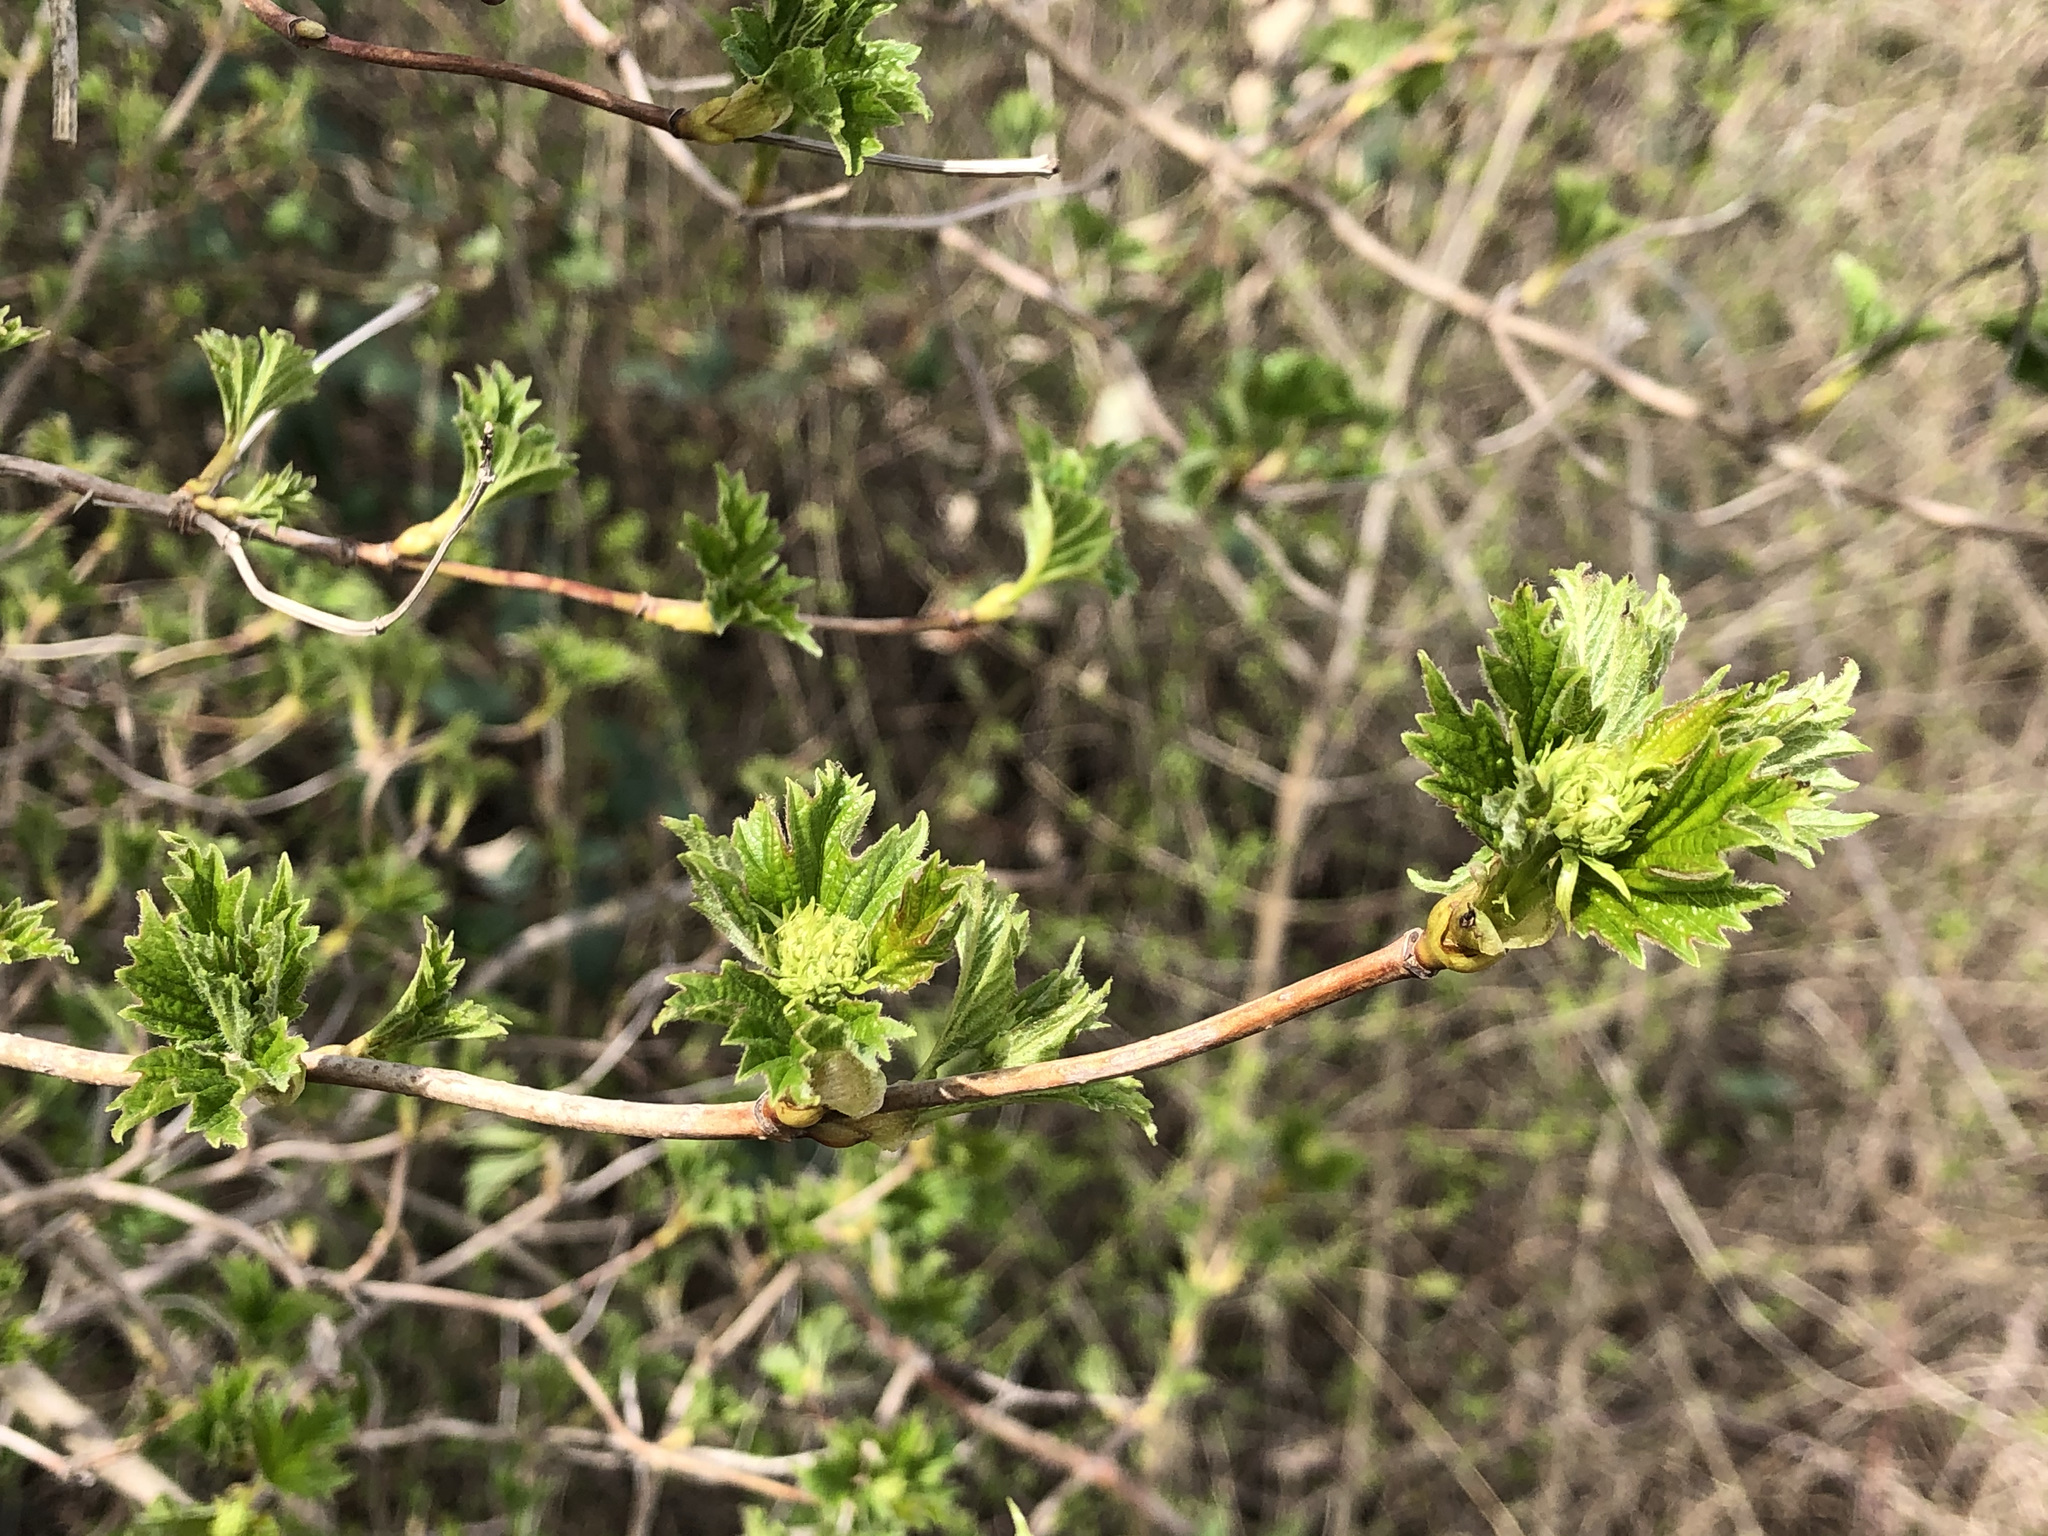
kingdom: Plantae
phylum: Tracheophyta
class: Magnoliopsida
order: Dipsacales
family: Viburnaceae
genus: Viburnum
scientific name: Viburnum opulus
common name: Guelder-rose
